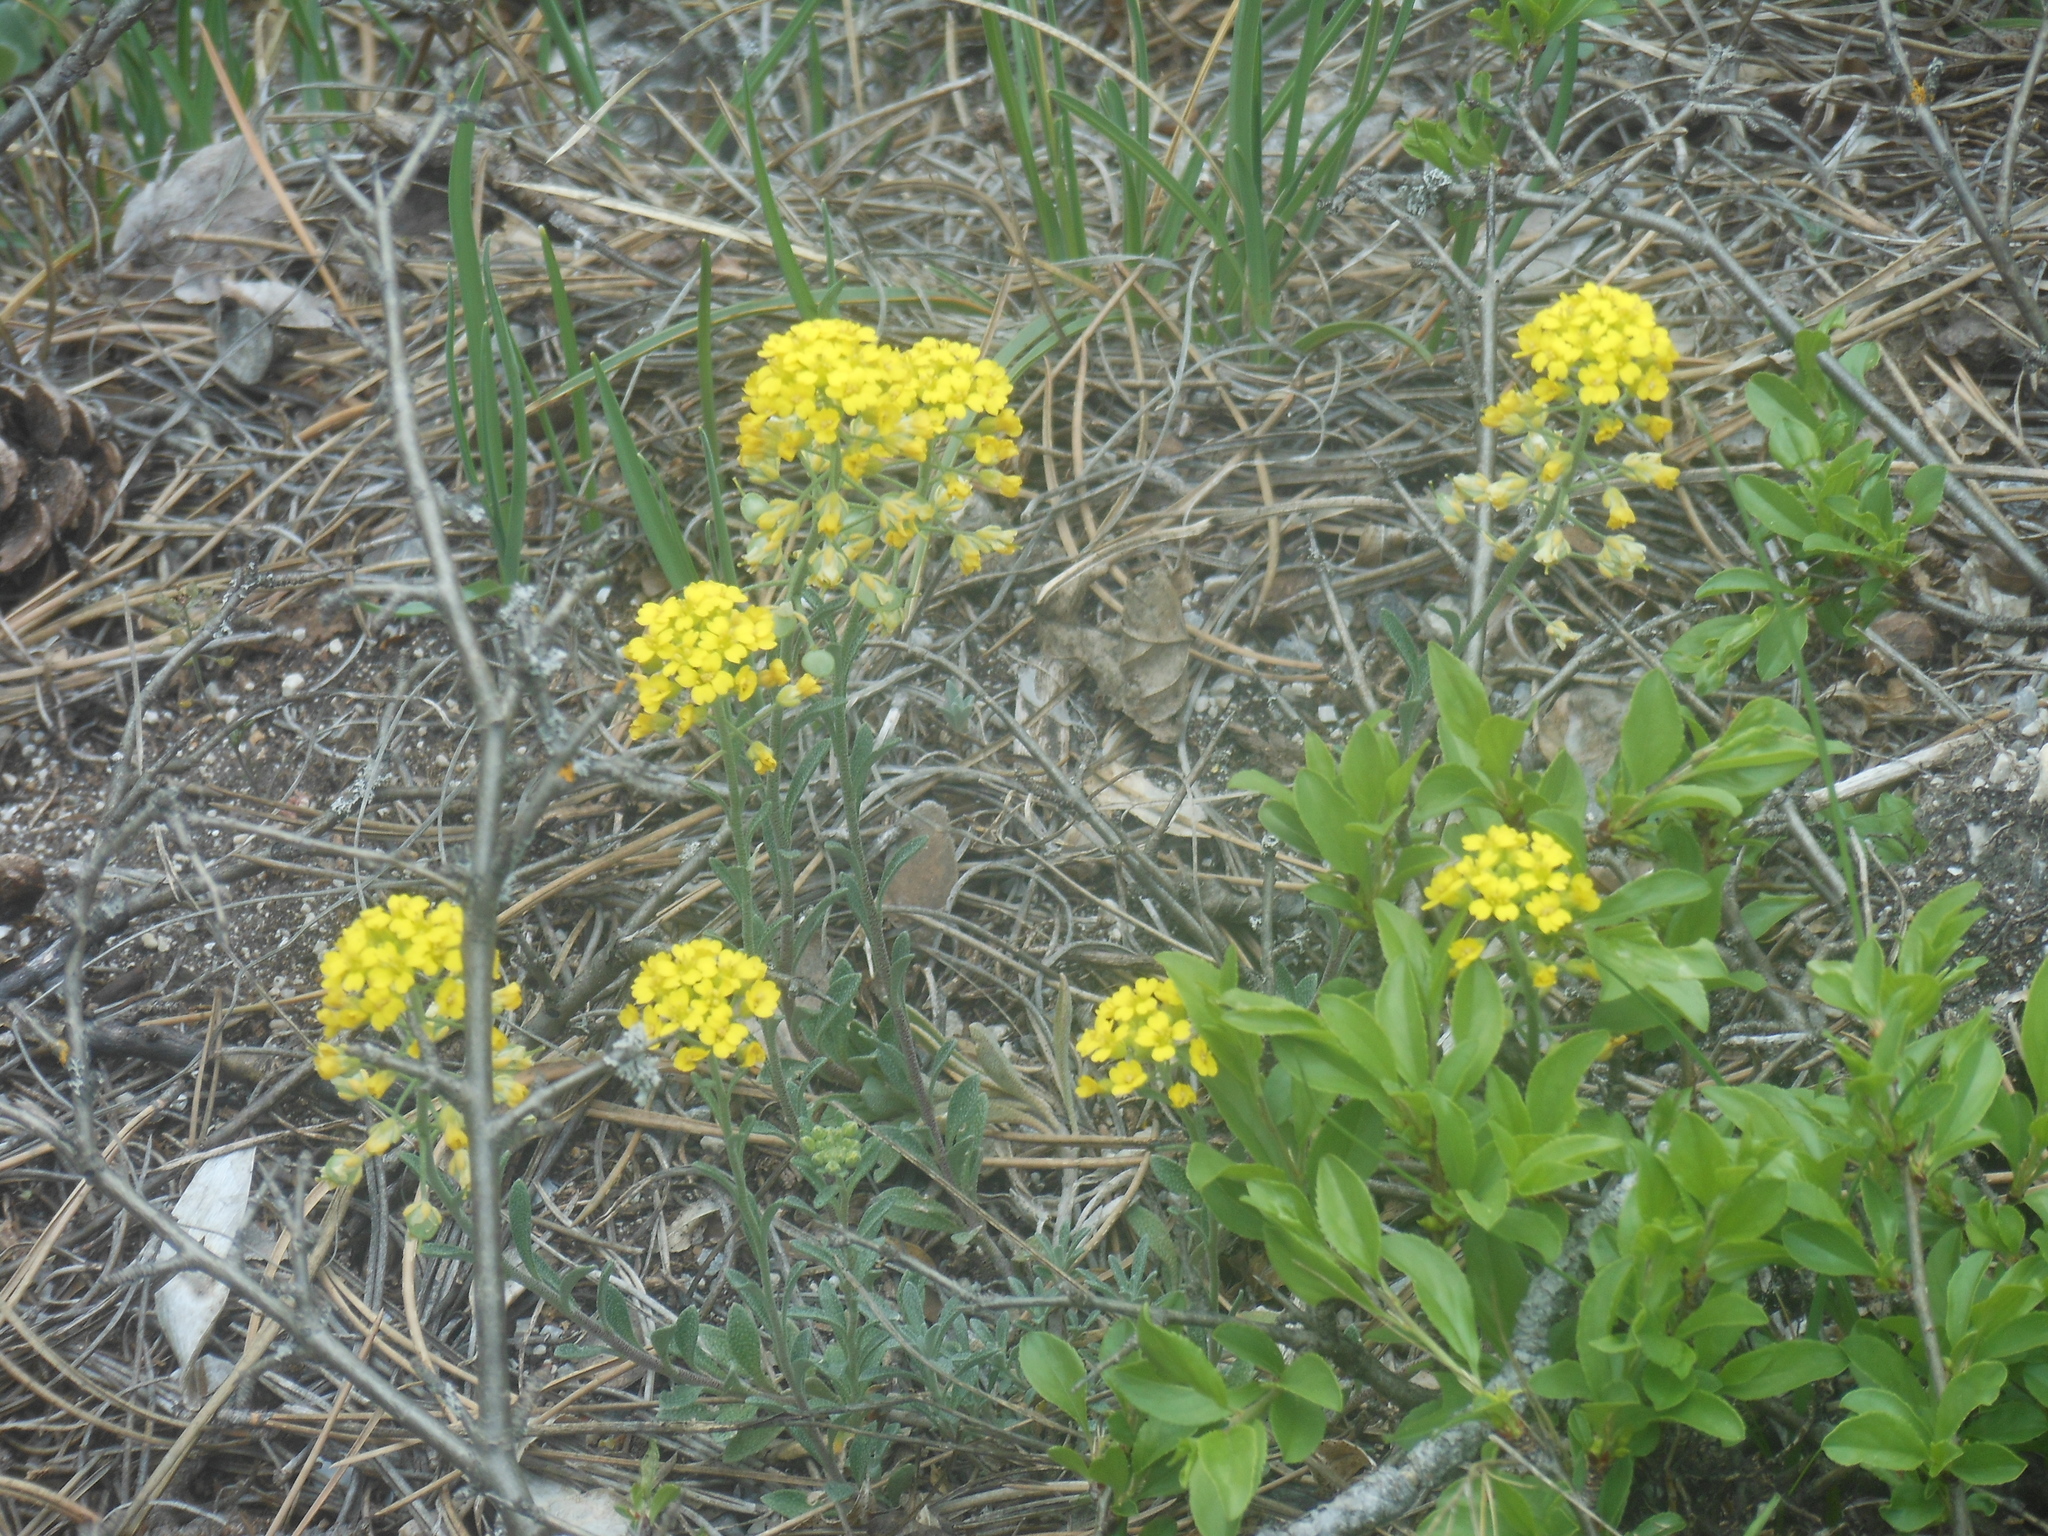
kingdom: Plantae
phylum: Tracheophyta
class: Magnoliopsida
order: Brassicales
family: Brassicaceae
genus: Alyssum
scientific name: Alyssum gmelinii
